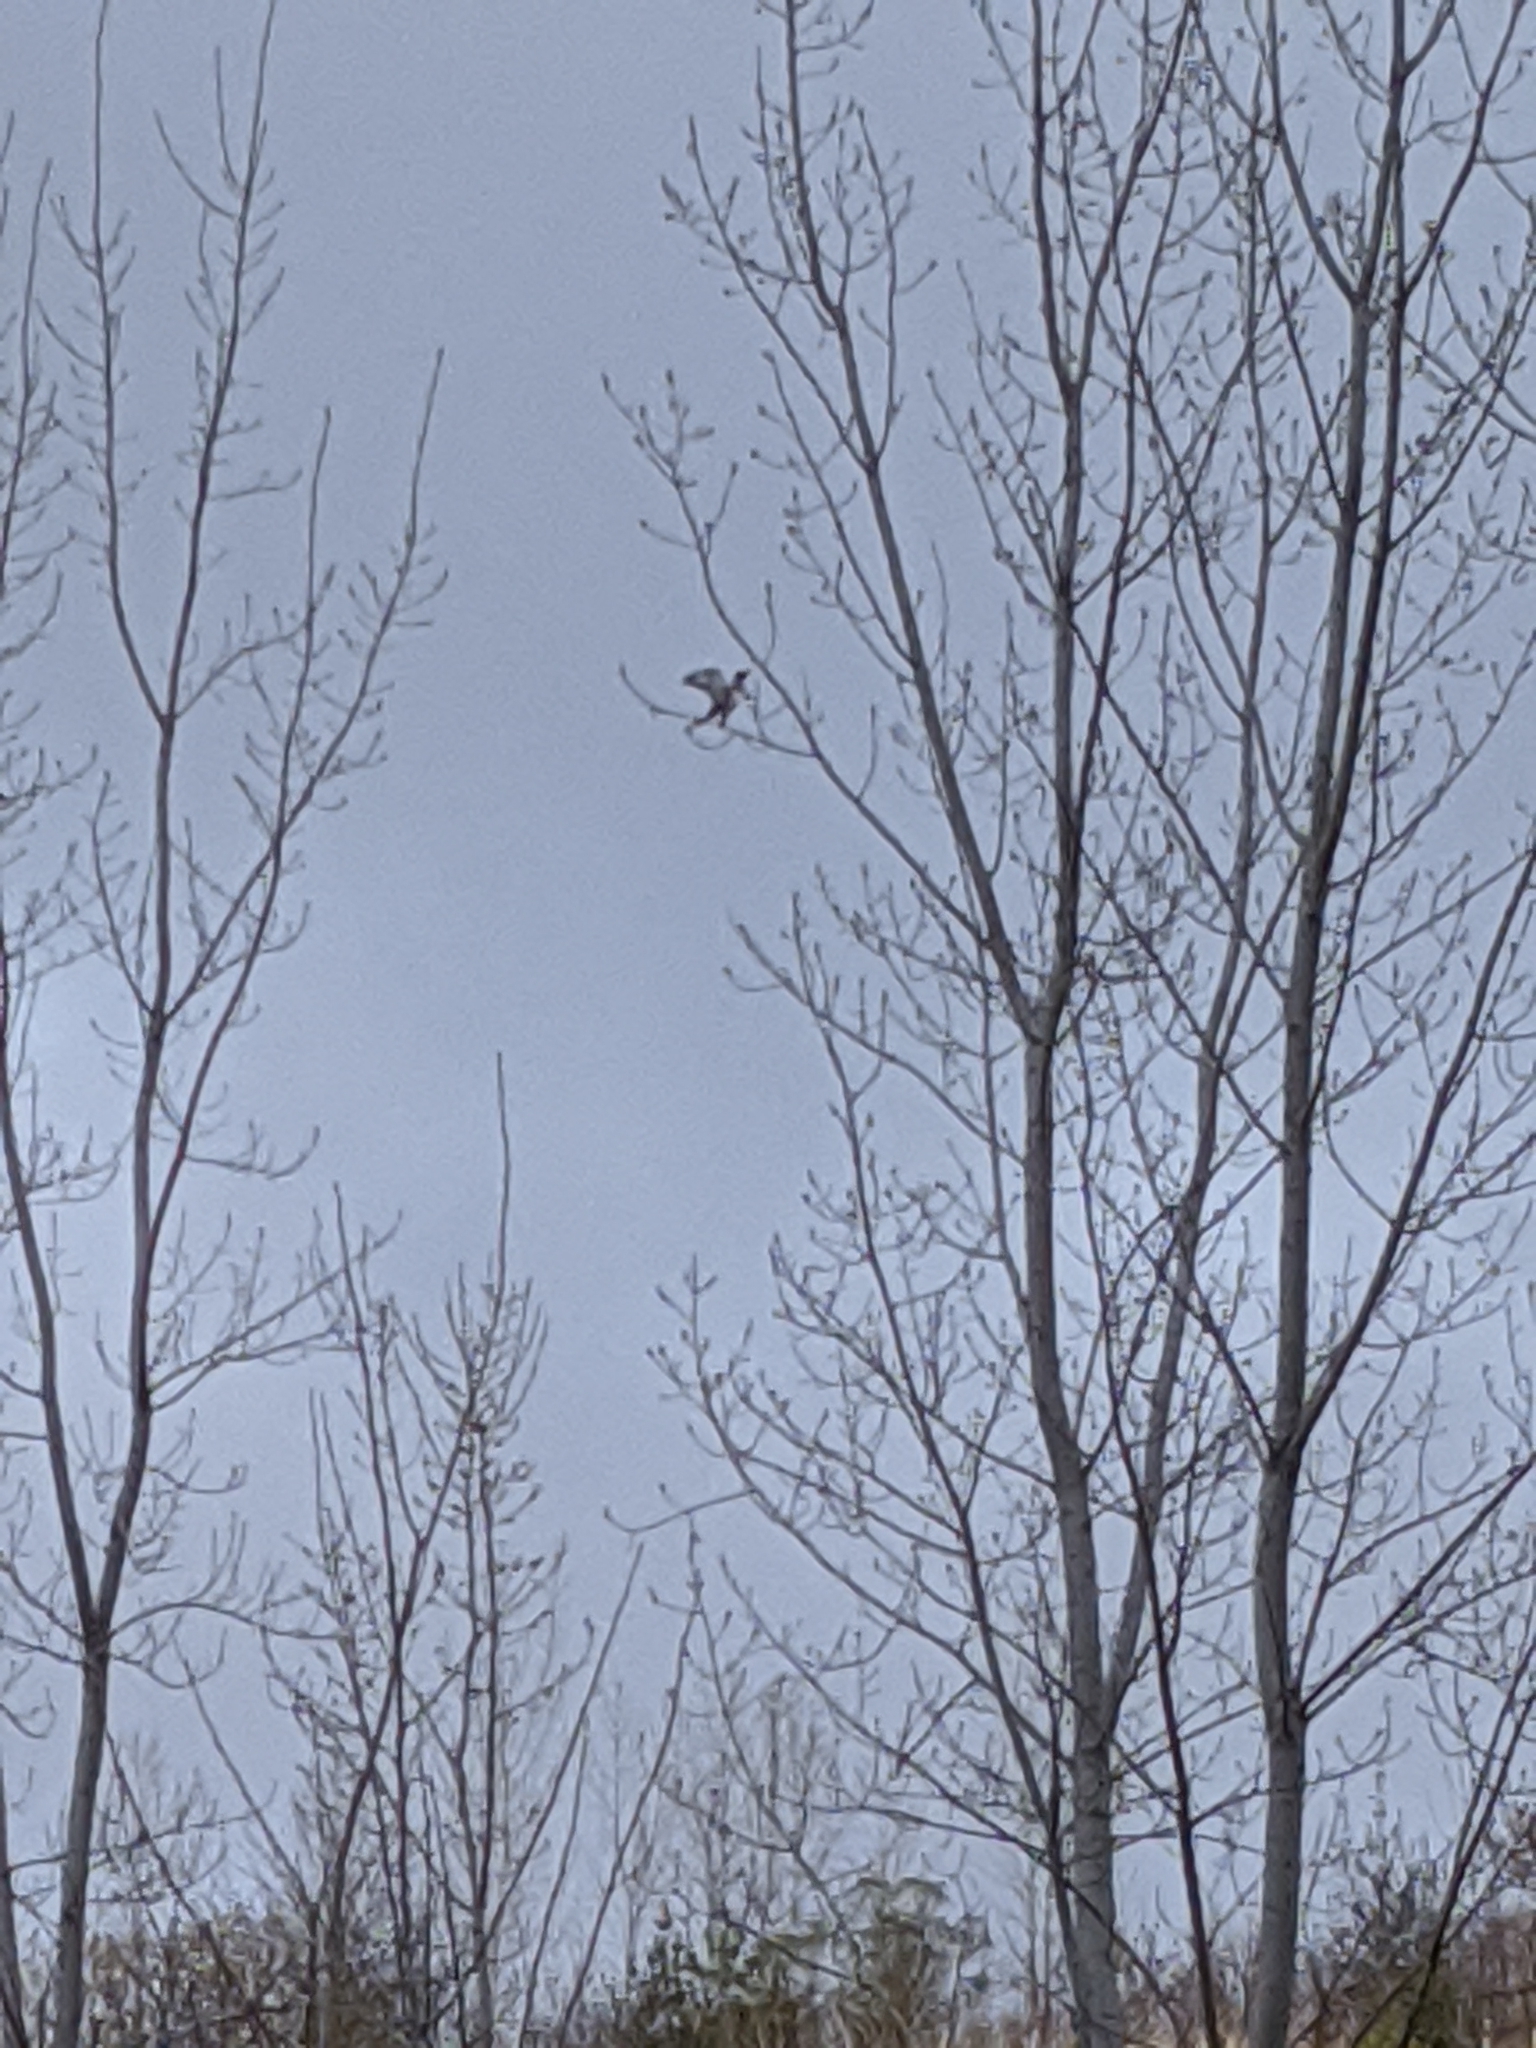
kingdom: Animalia
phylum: Chordata
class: Aves
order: Coraciiformes
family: Alcedinidae
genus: Megaceryle
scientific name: Megaceryle alcyon
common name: Belted kingfisher
